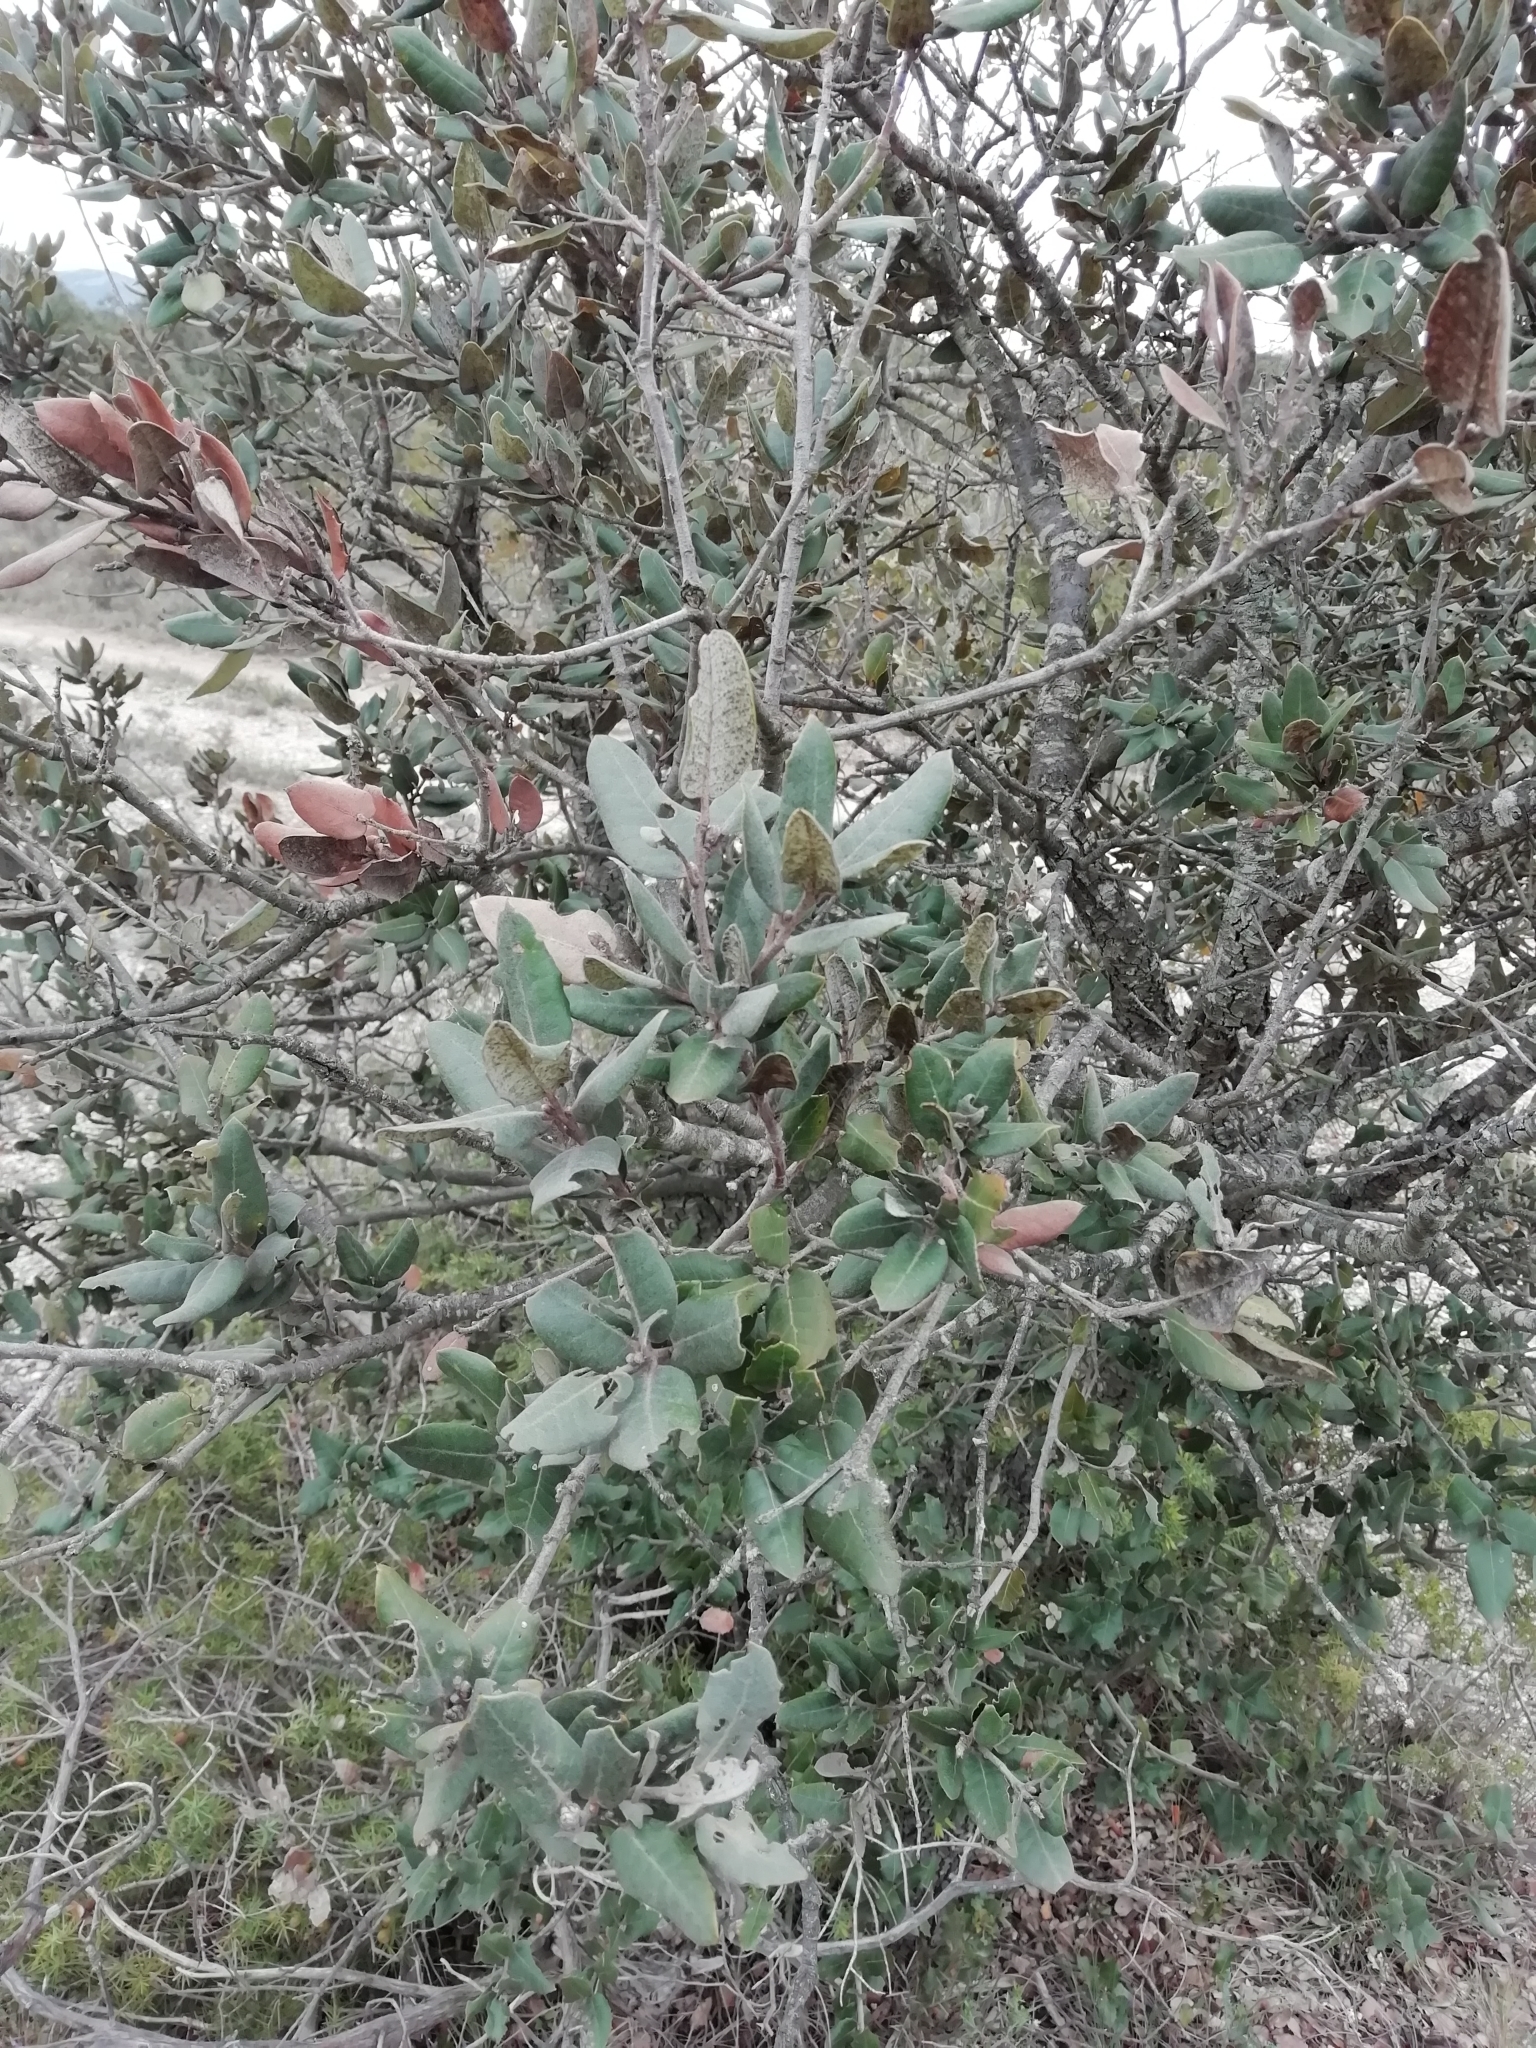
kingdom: Plantae
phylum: Tracheophyta
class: Magnoliopsida
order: Fagales
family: Fagaceae
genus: Quercus
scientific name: Quercus ilex
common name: Evergreen oak
